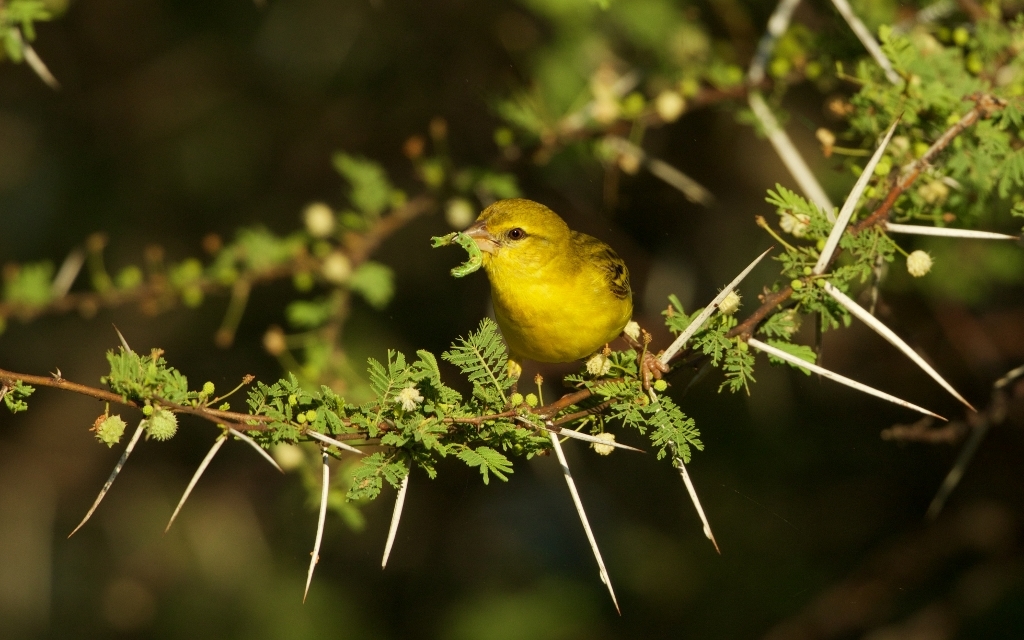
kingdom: Animalia
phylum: Chordata
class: Aves
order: Passeriformes
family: Ploceidae
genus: Ploceus
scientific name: Ploceus velatus
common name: Southern masked weaver
